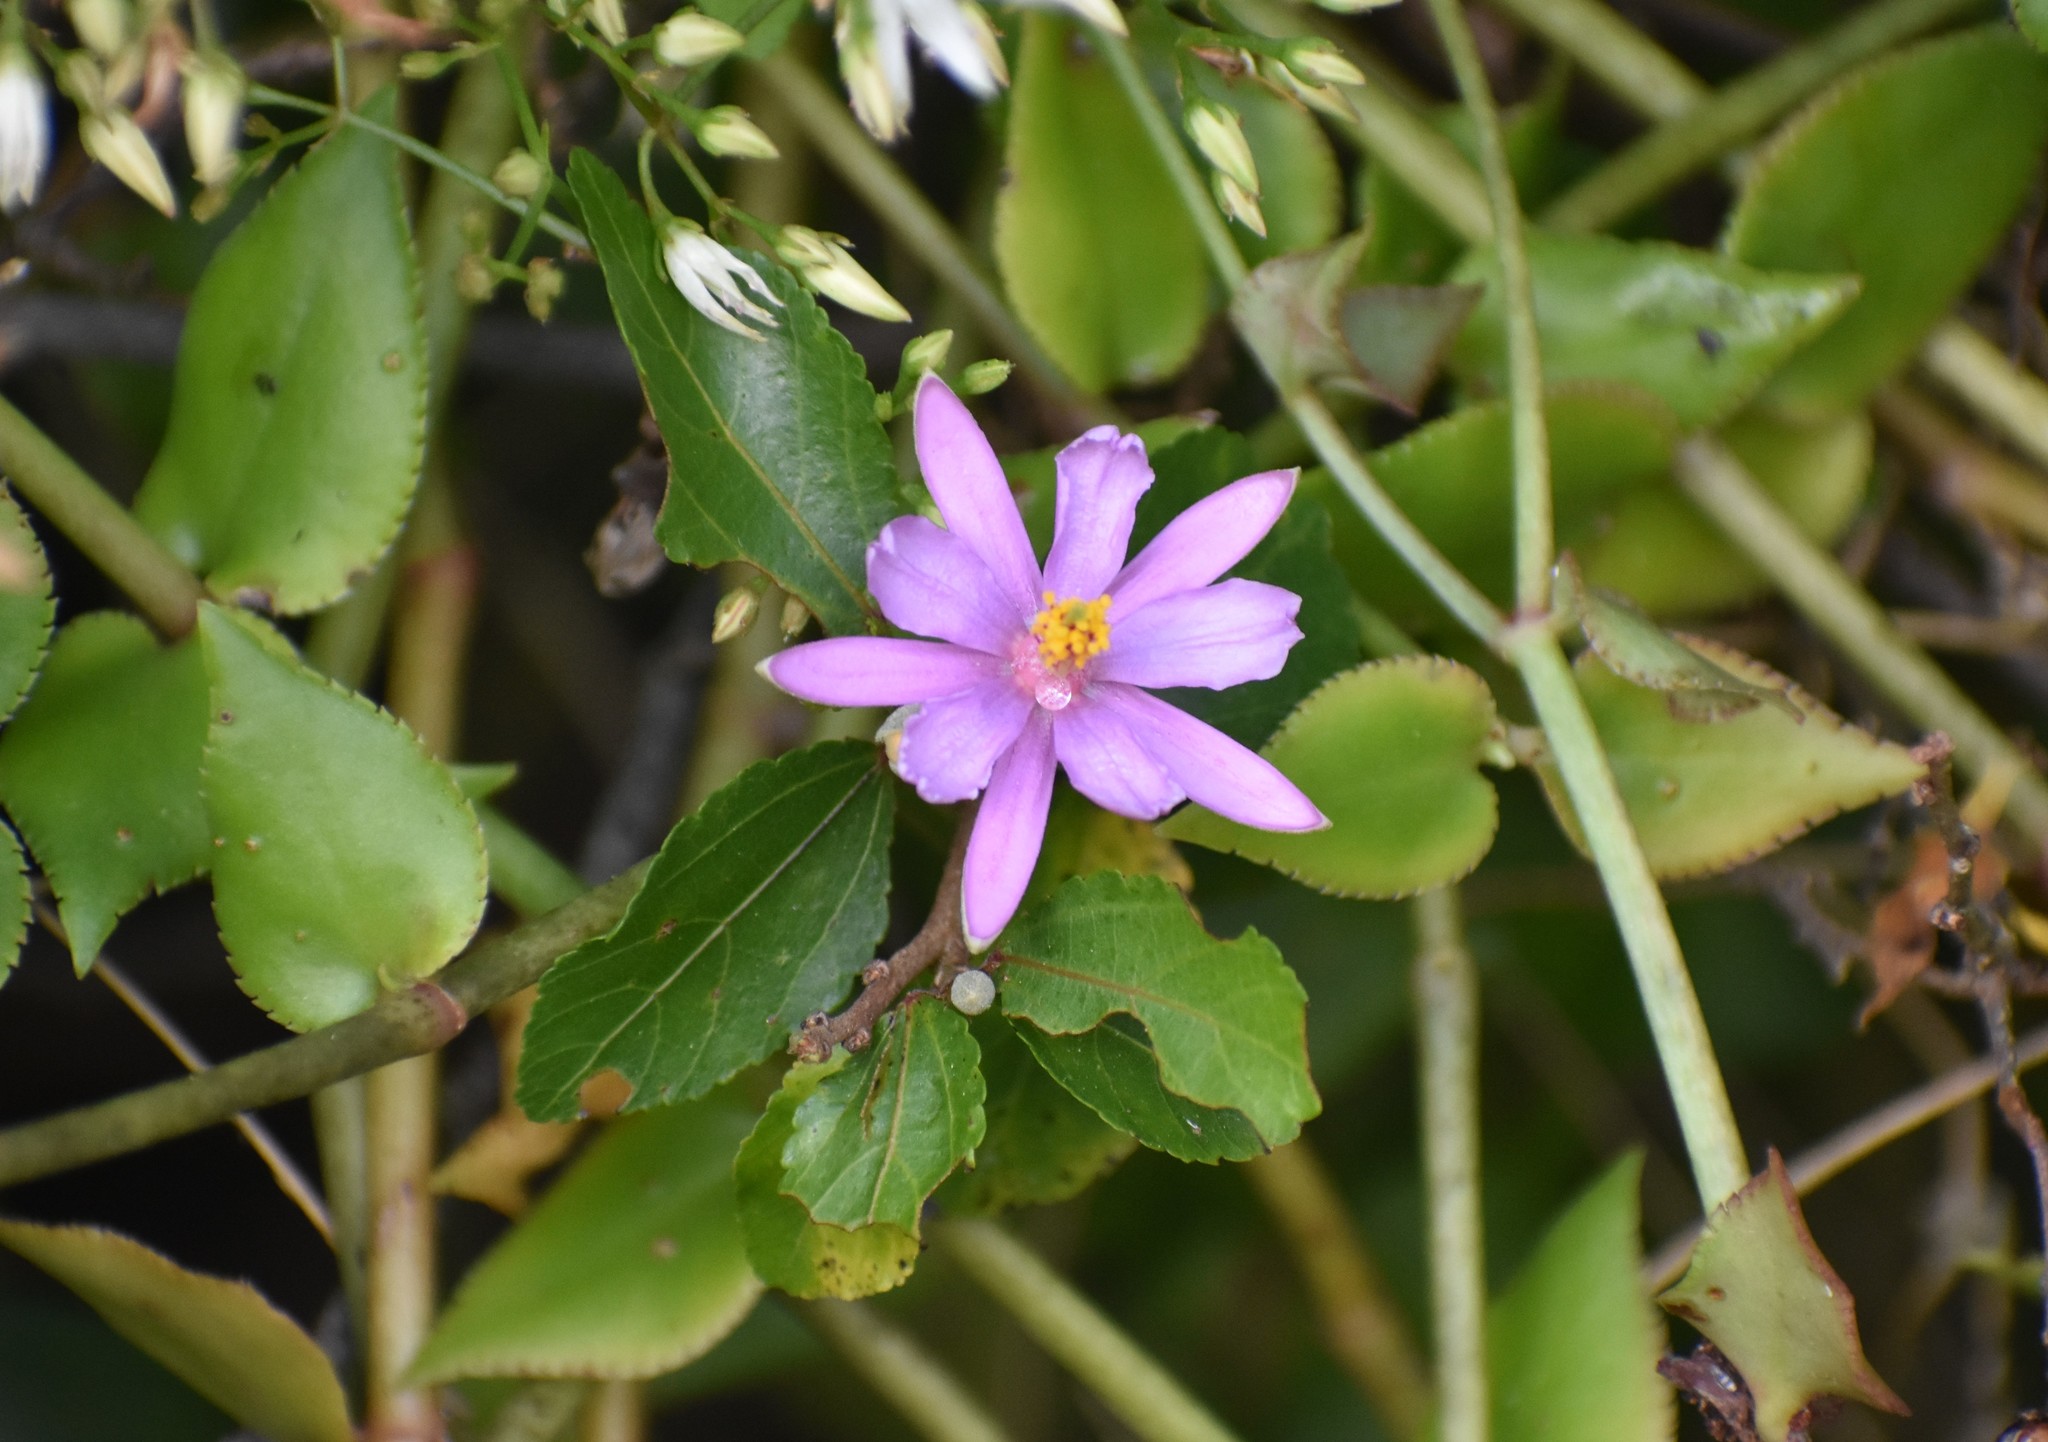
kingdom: Plantae
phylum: Tracheophyta
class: Magnoliopsida
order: Malvales
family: Malvaceae
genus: Grewia
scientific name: Grewia occidentalis
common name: Crossberry
